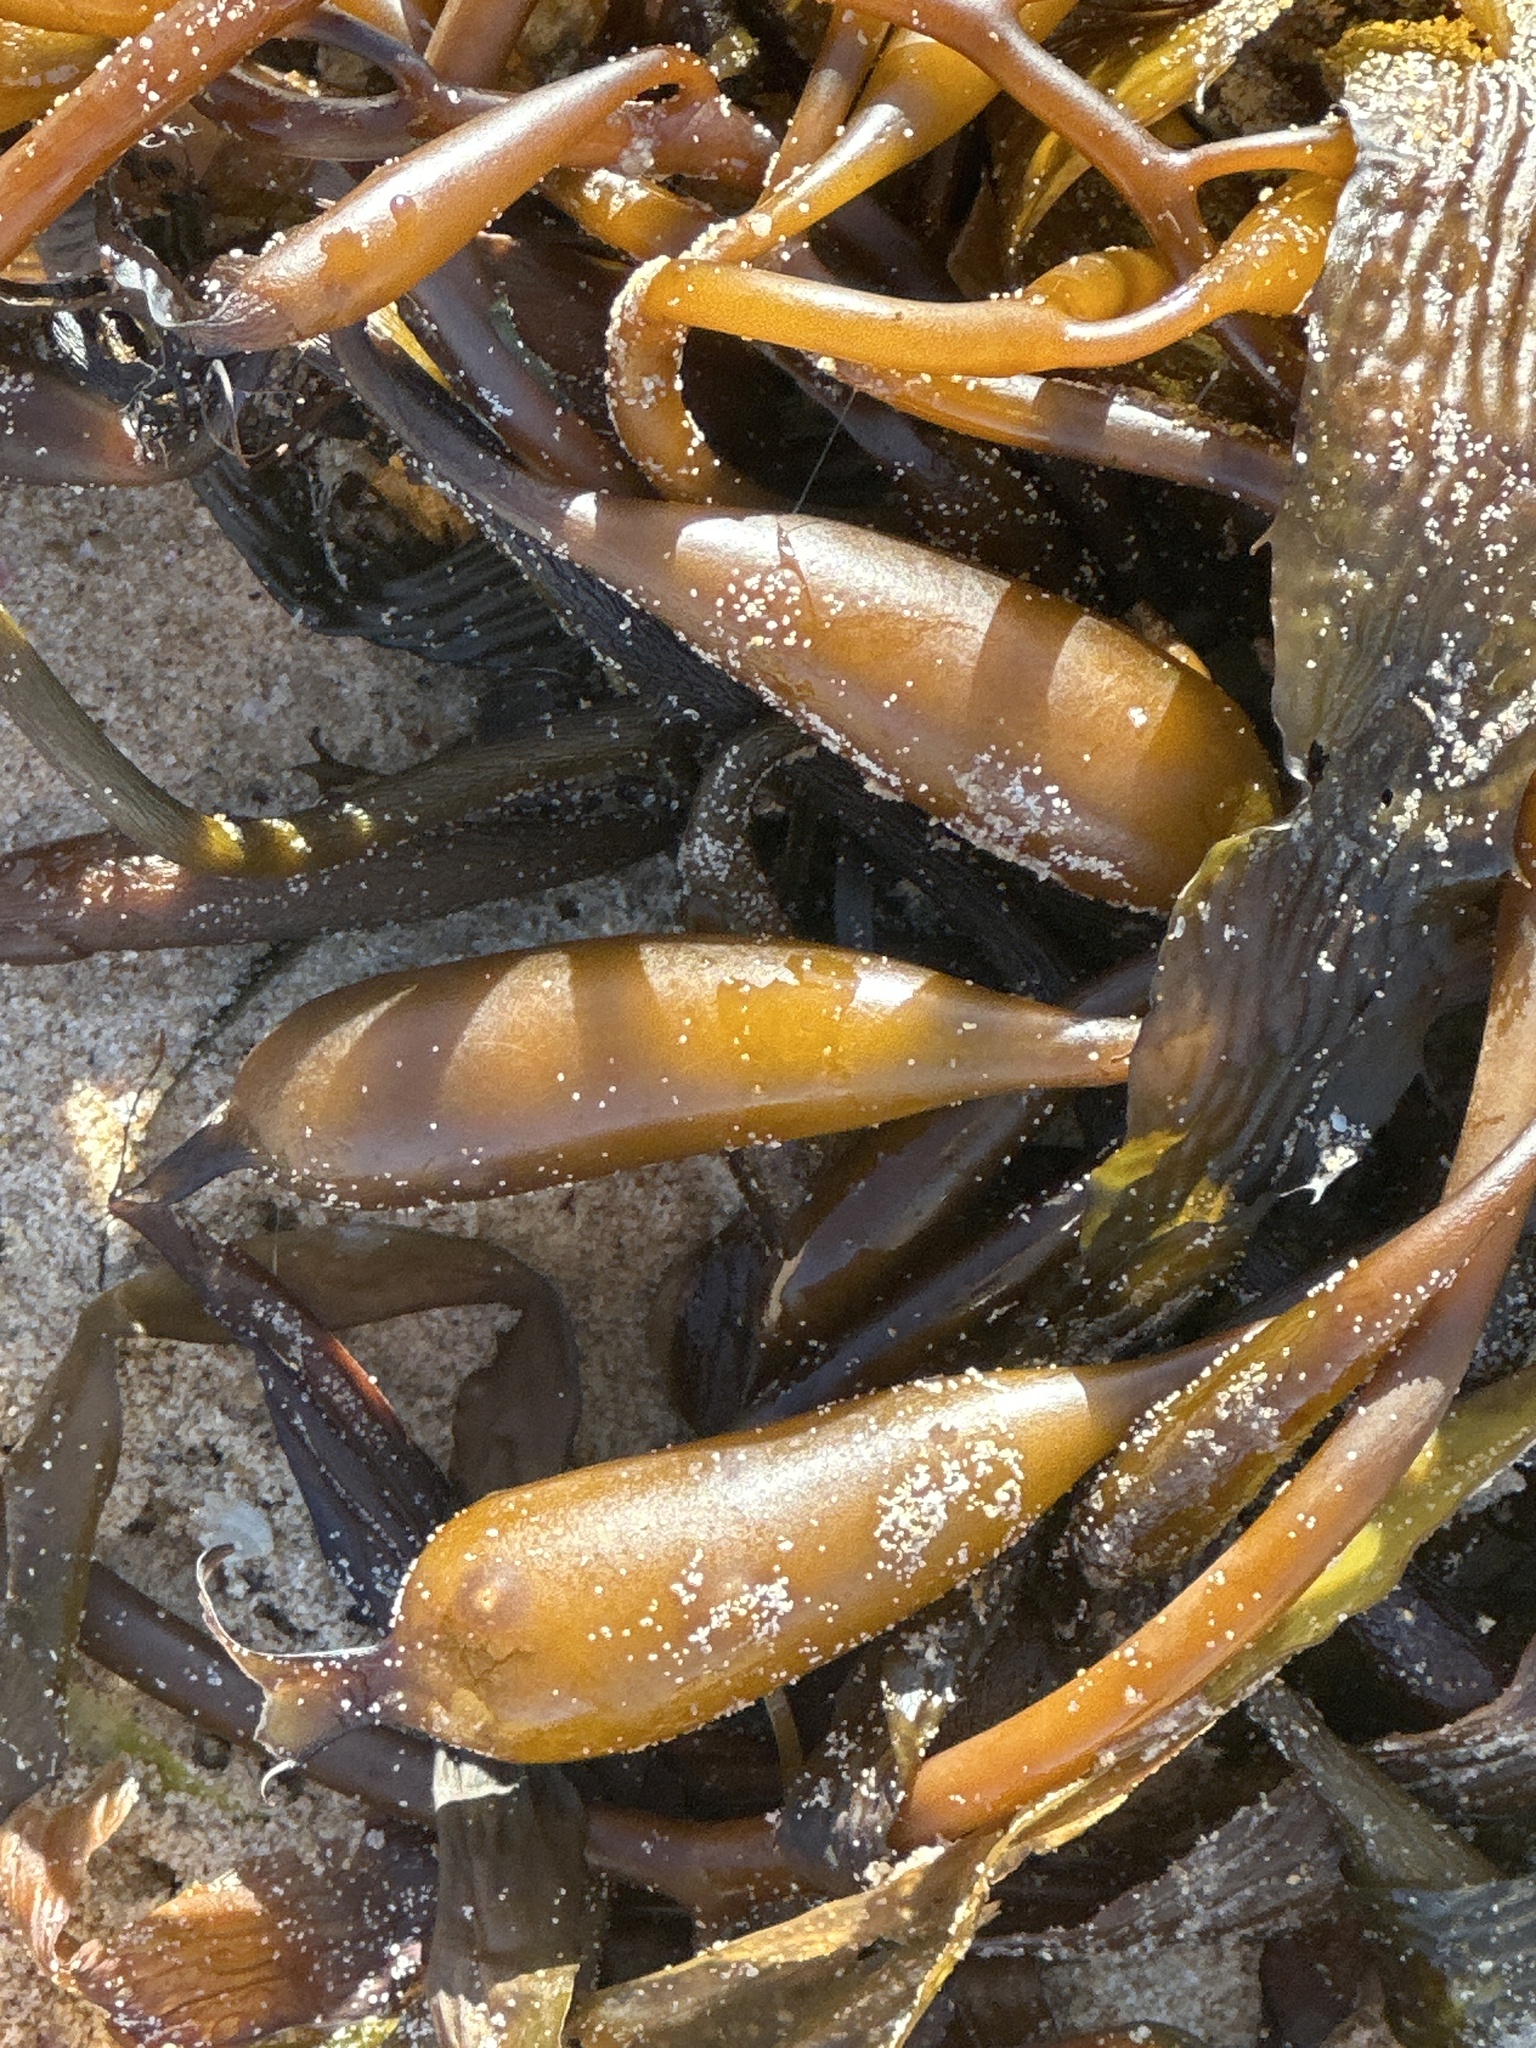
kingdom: Chromista
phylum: Ochrophyta
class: Phaeophyceae
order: Laminariales
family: Laminariaceae
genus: Macrocystis
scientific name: Macrocystis pyrifera
